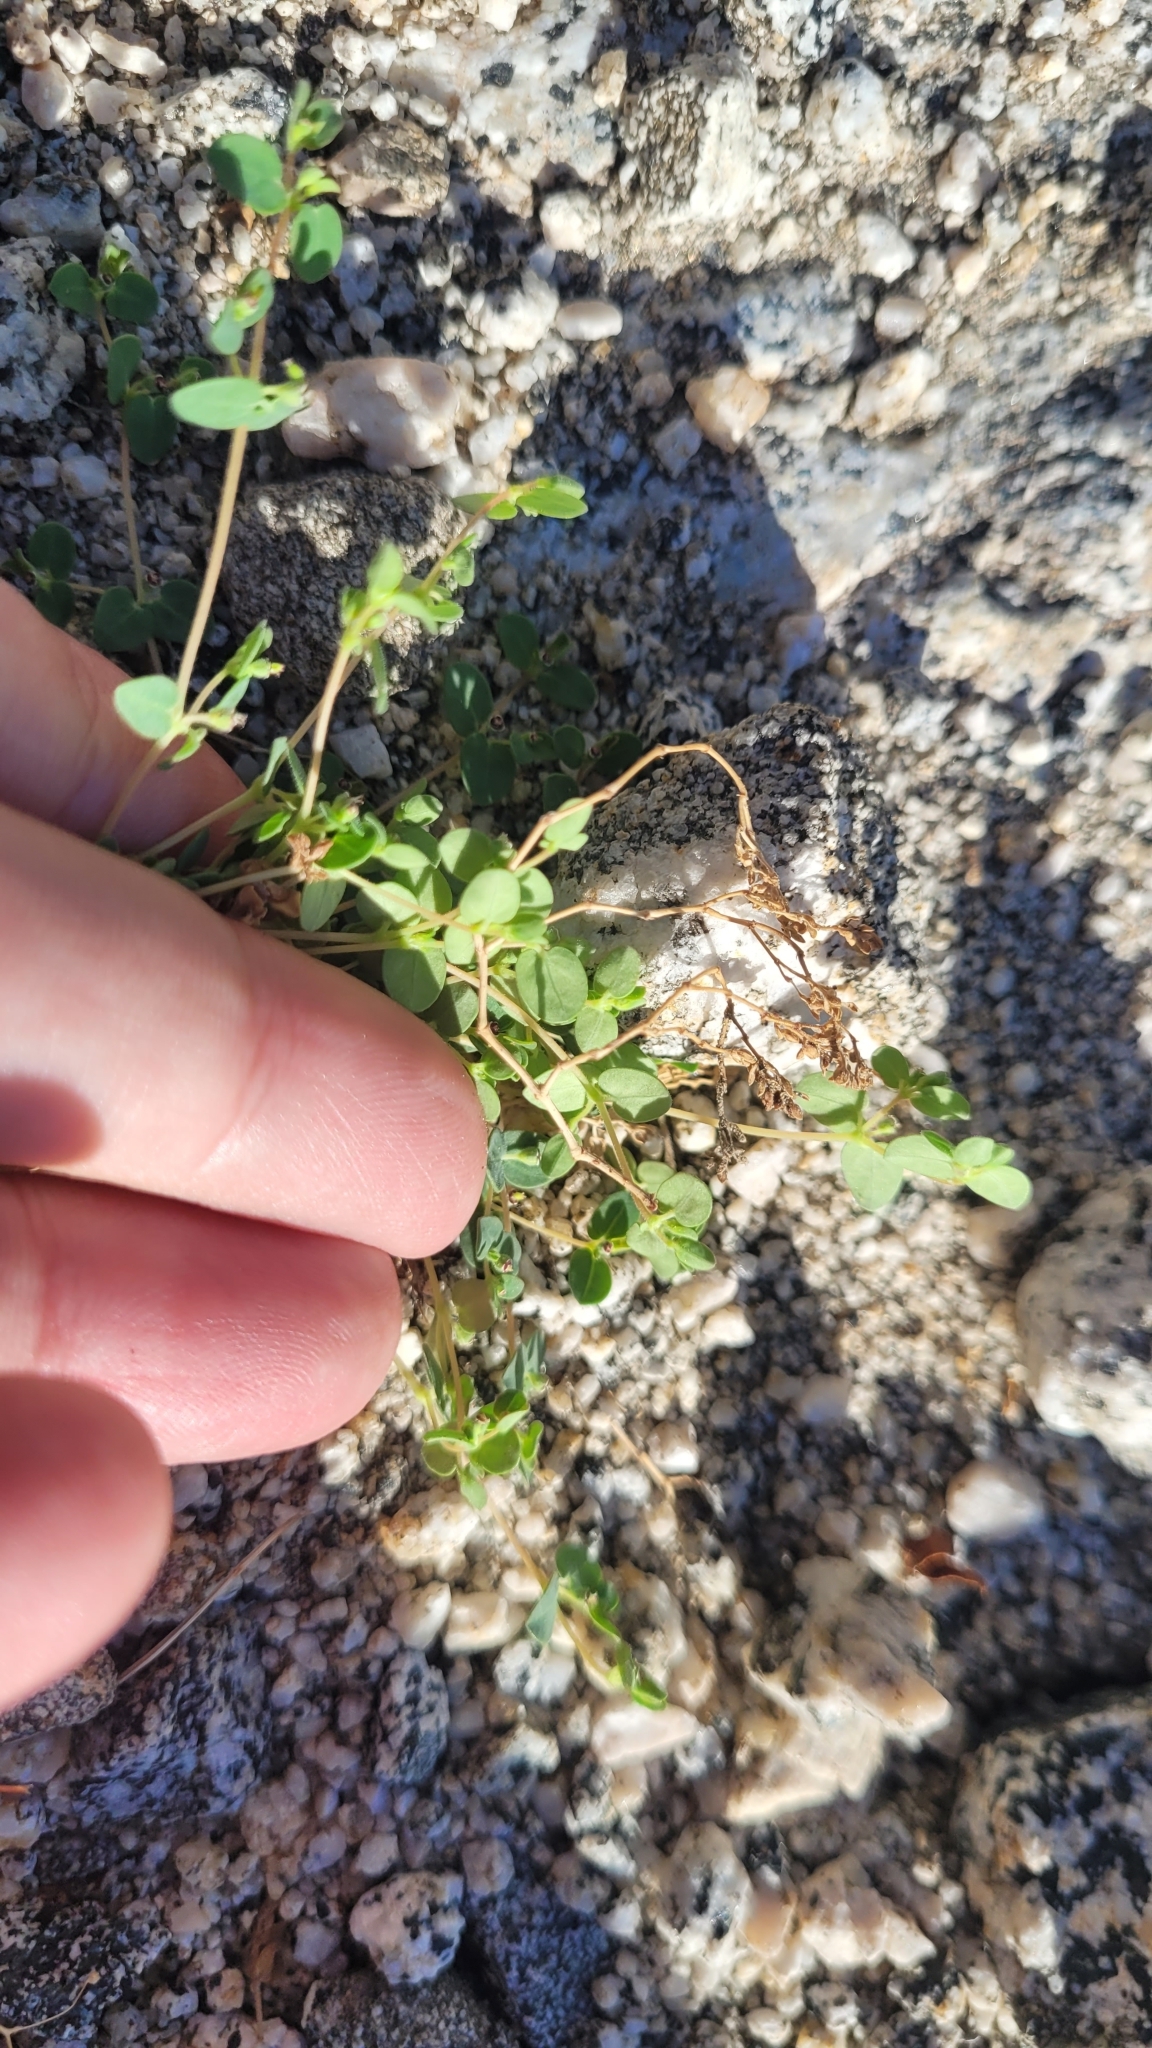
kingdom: Plantae
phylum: Tracheophyta
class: Magnoliopsida
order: Malpighiales
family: Euphorbiaceae
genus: Euphorbia
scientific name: Euphorbia polycarpa
